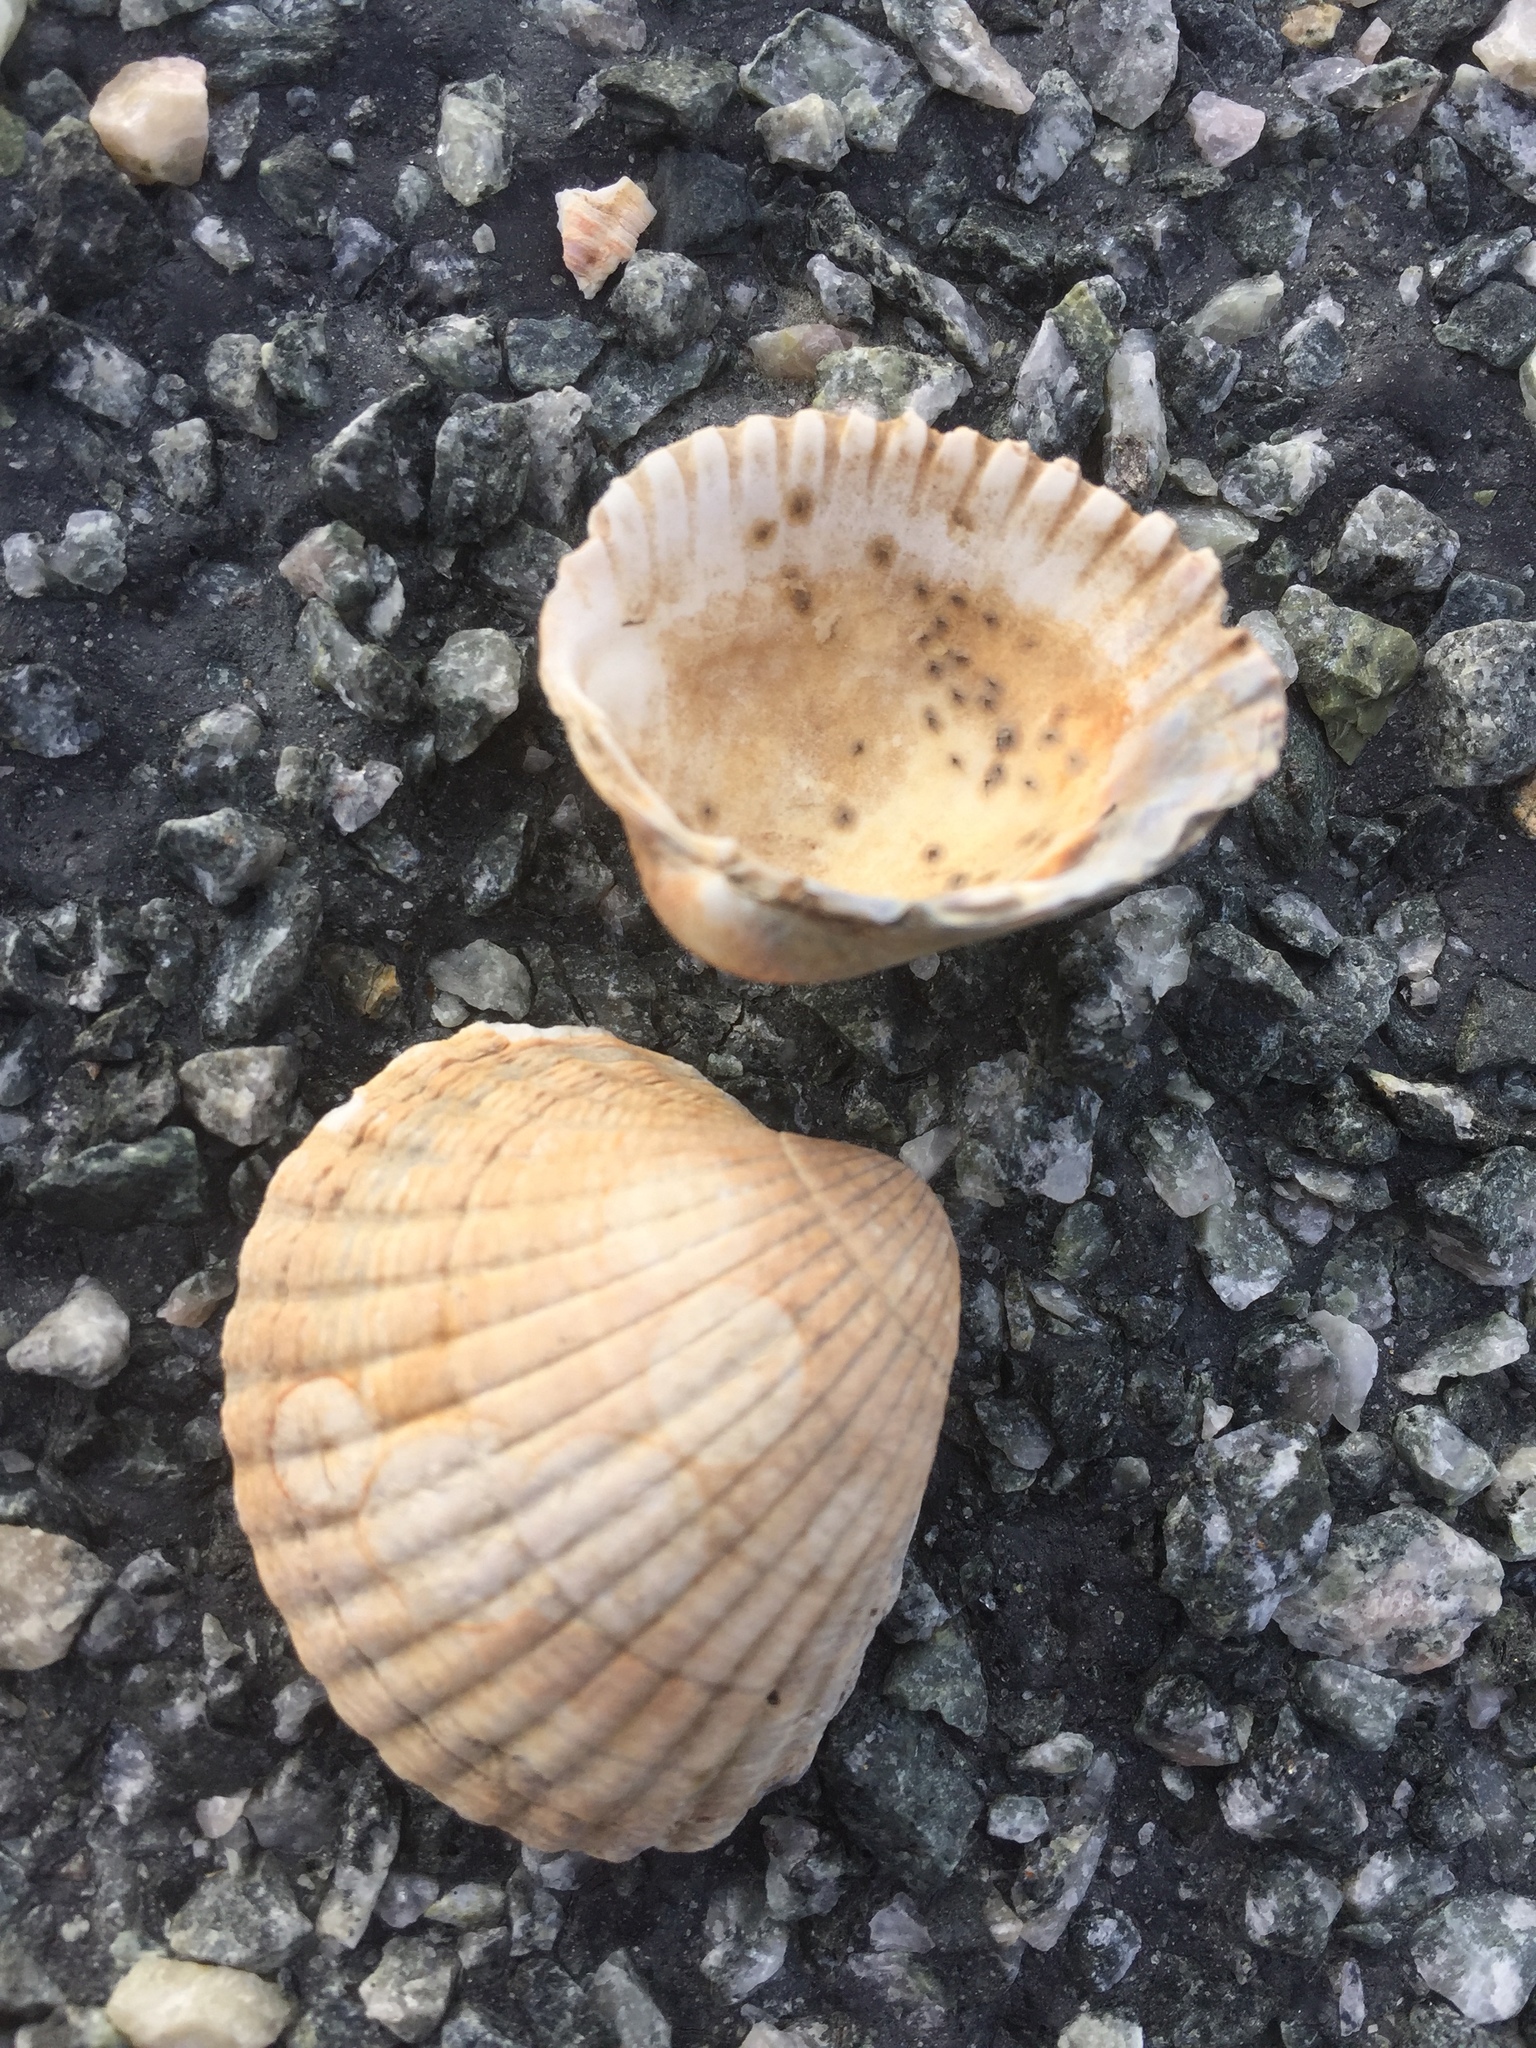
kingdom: Animalia
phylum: Mollusca
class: Bivalvia
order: Cardiida
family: Cardiidae
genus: Cerastoderma
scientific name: Cerastoderma edule
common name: Common cockle
